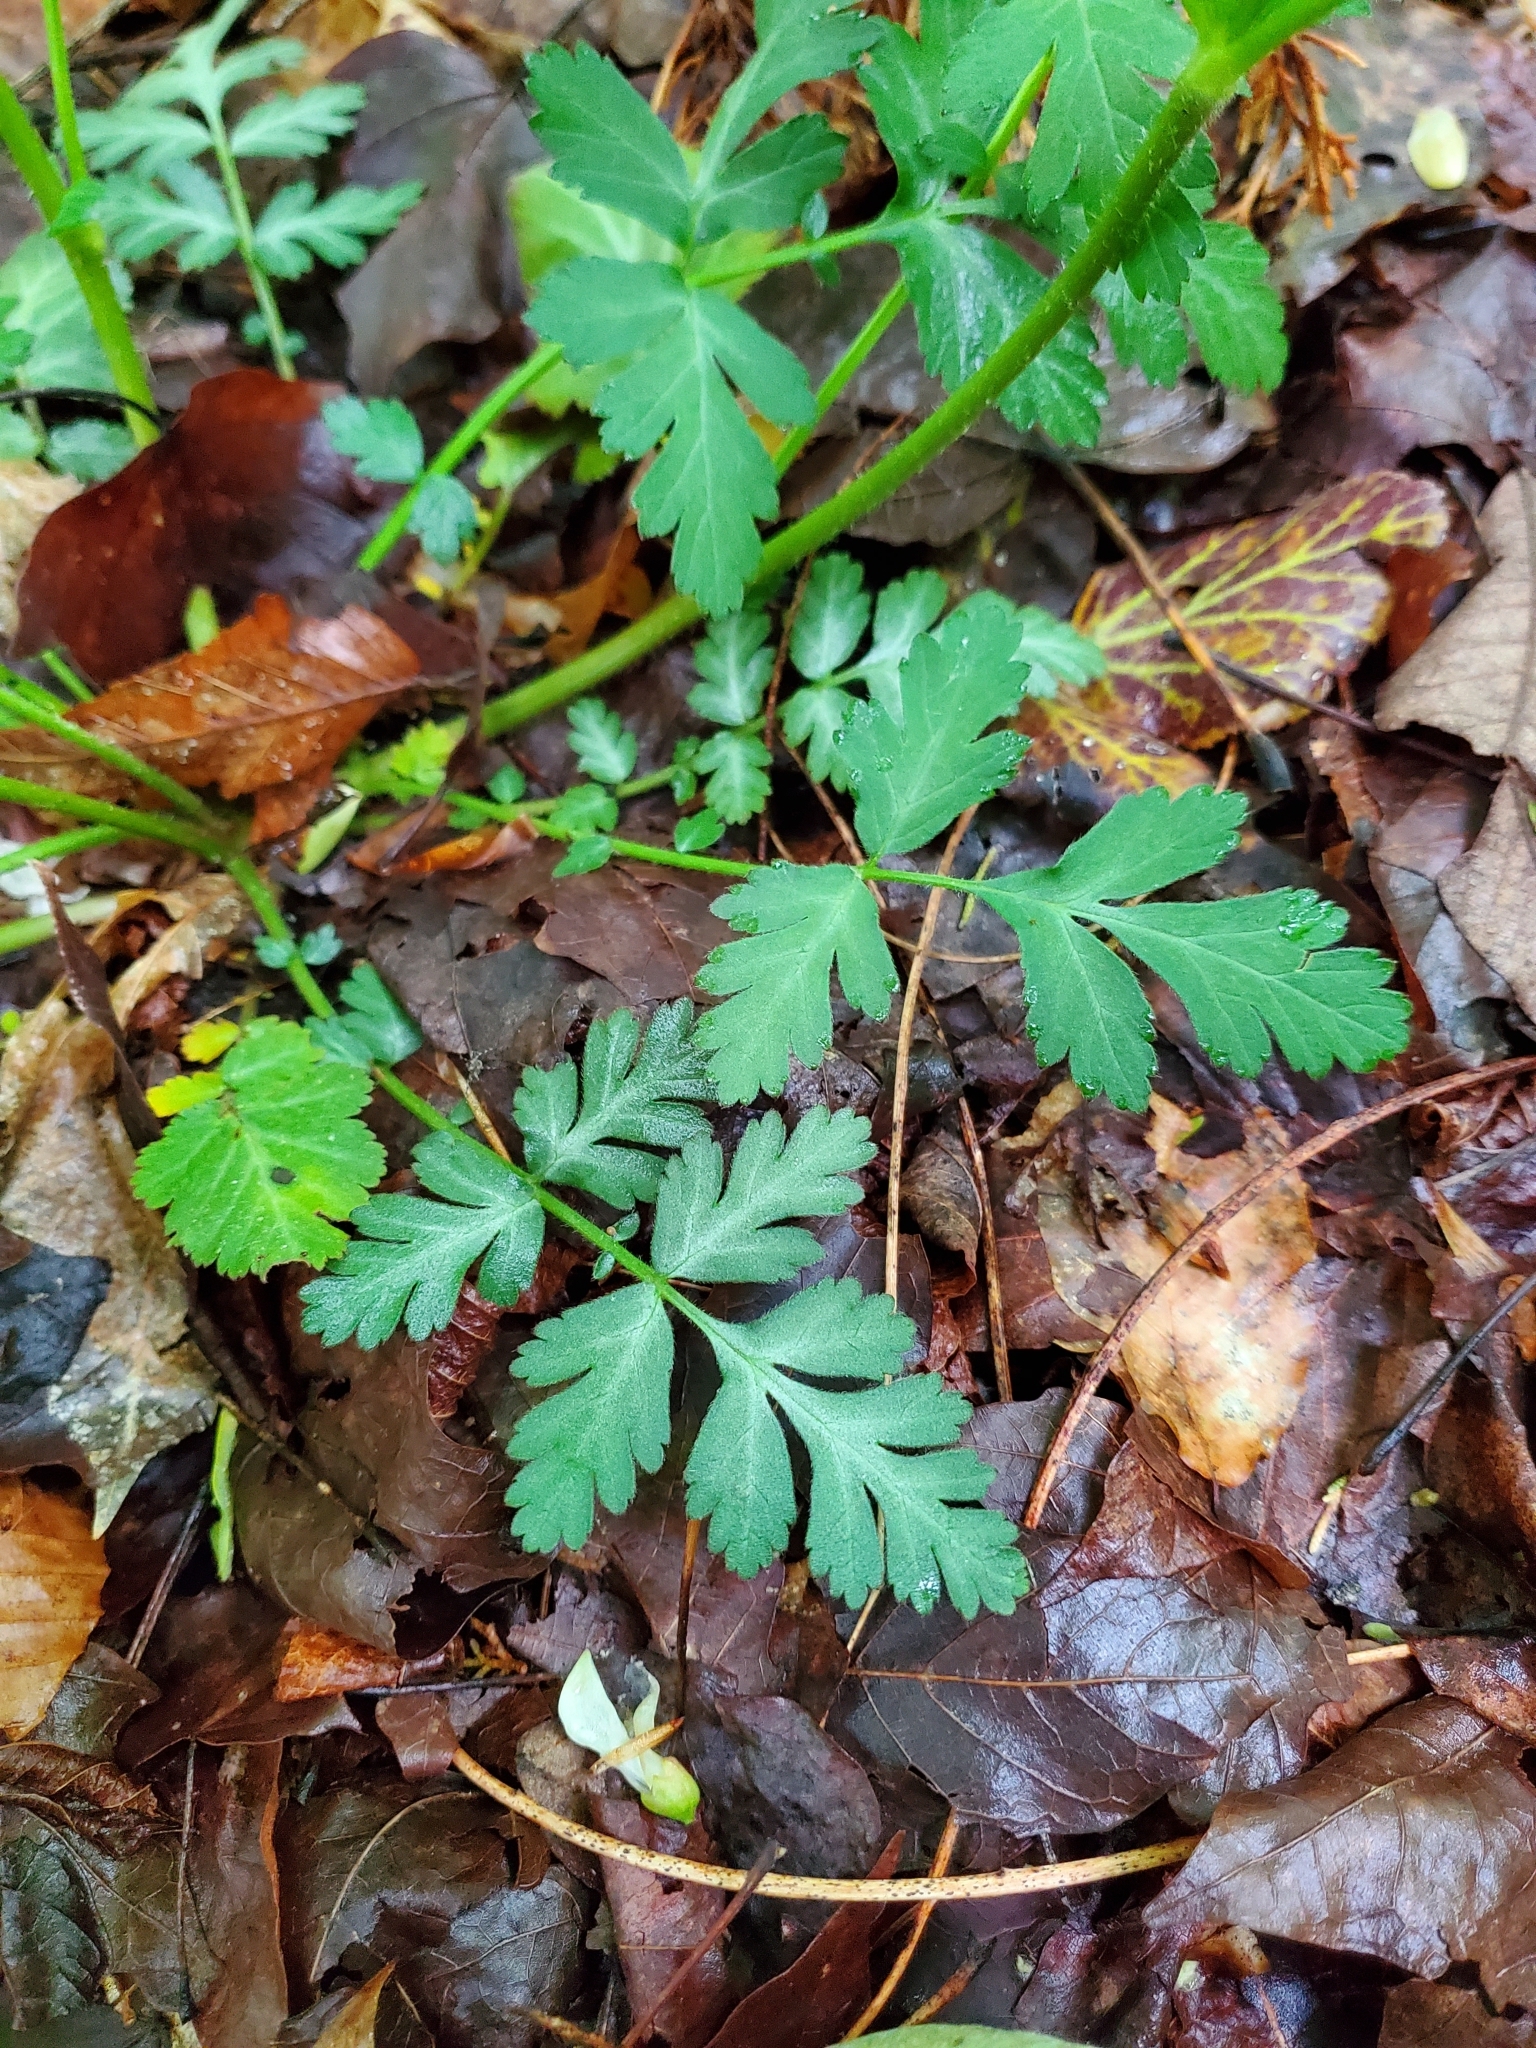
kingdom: Plantae
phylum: Tracheophyta
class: Magnoliopsida
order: Rosales
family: Rosaceae
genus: Geum
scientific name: Geum canadense
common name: White avens
